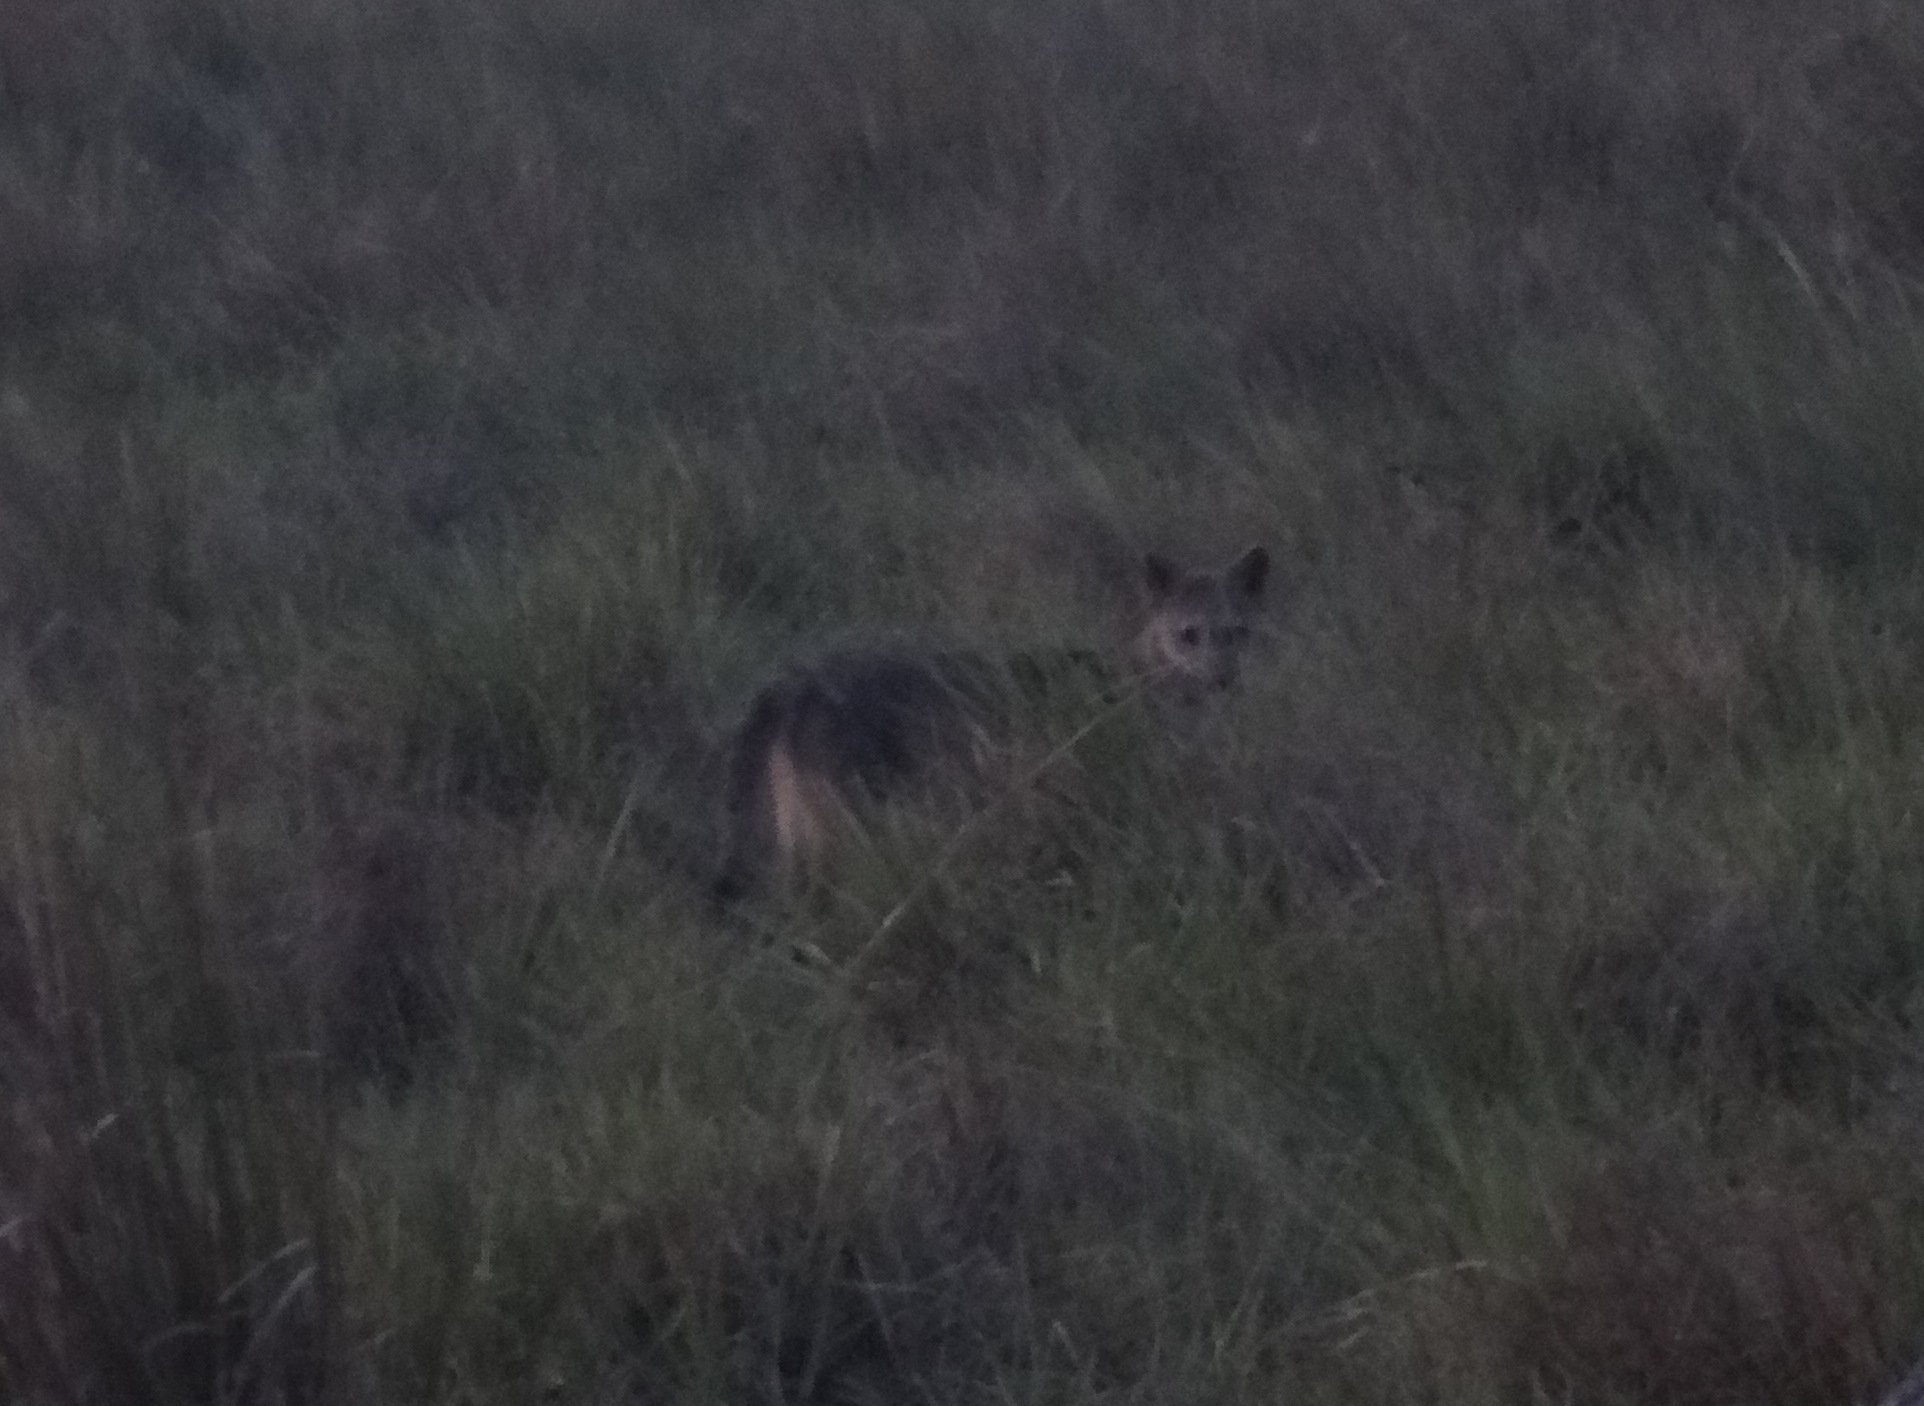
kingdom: Animalia
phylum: Chordata
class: Mammalia
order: Carnivora
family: Canidae
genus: Cerdocyon
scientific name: Cerdocyon thous
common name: Crab-eating fox
